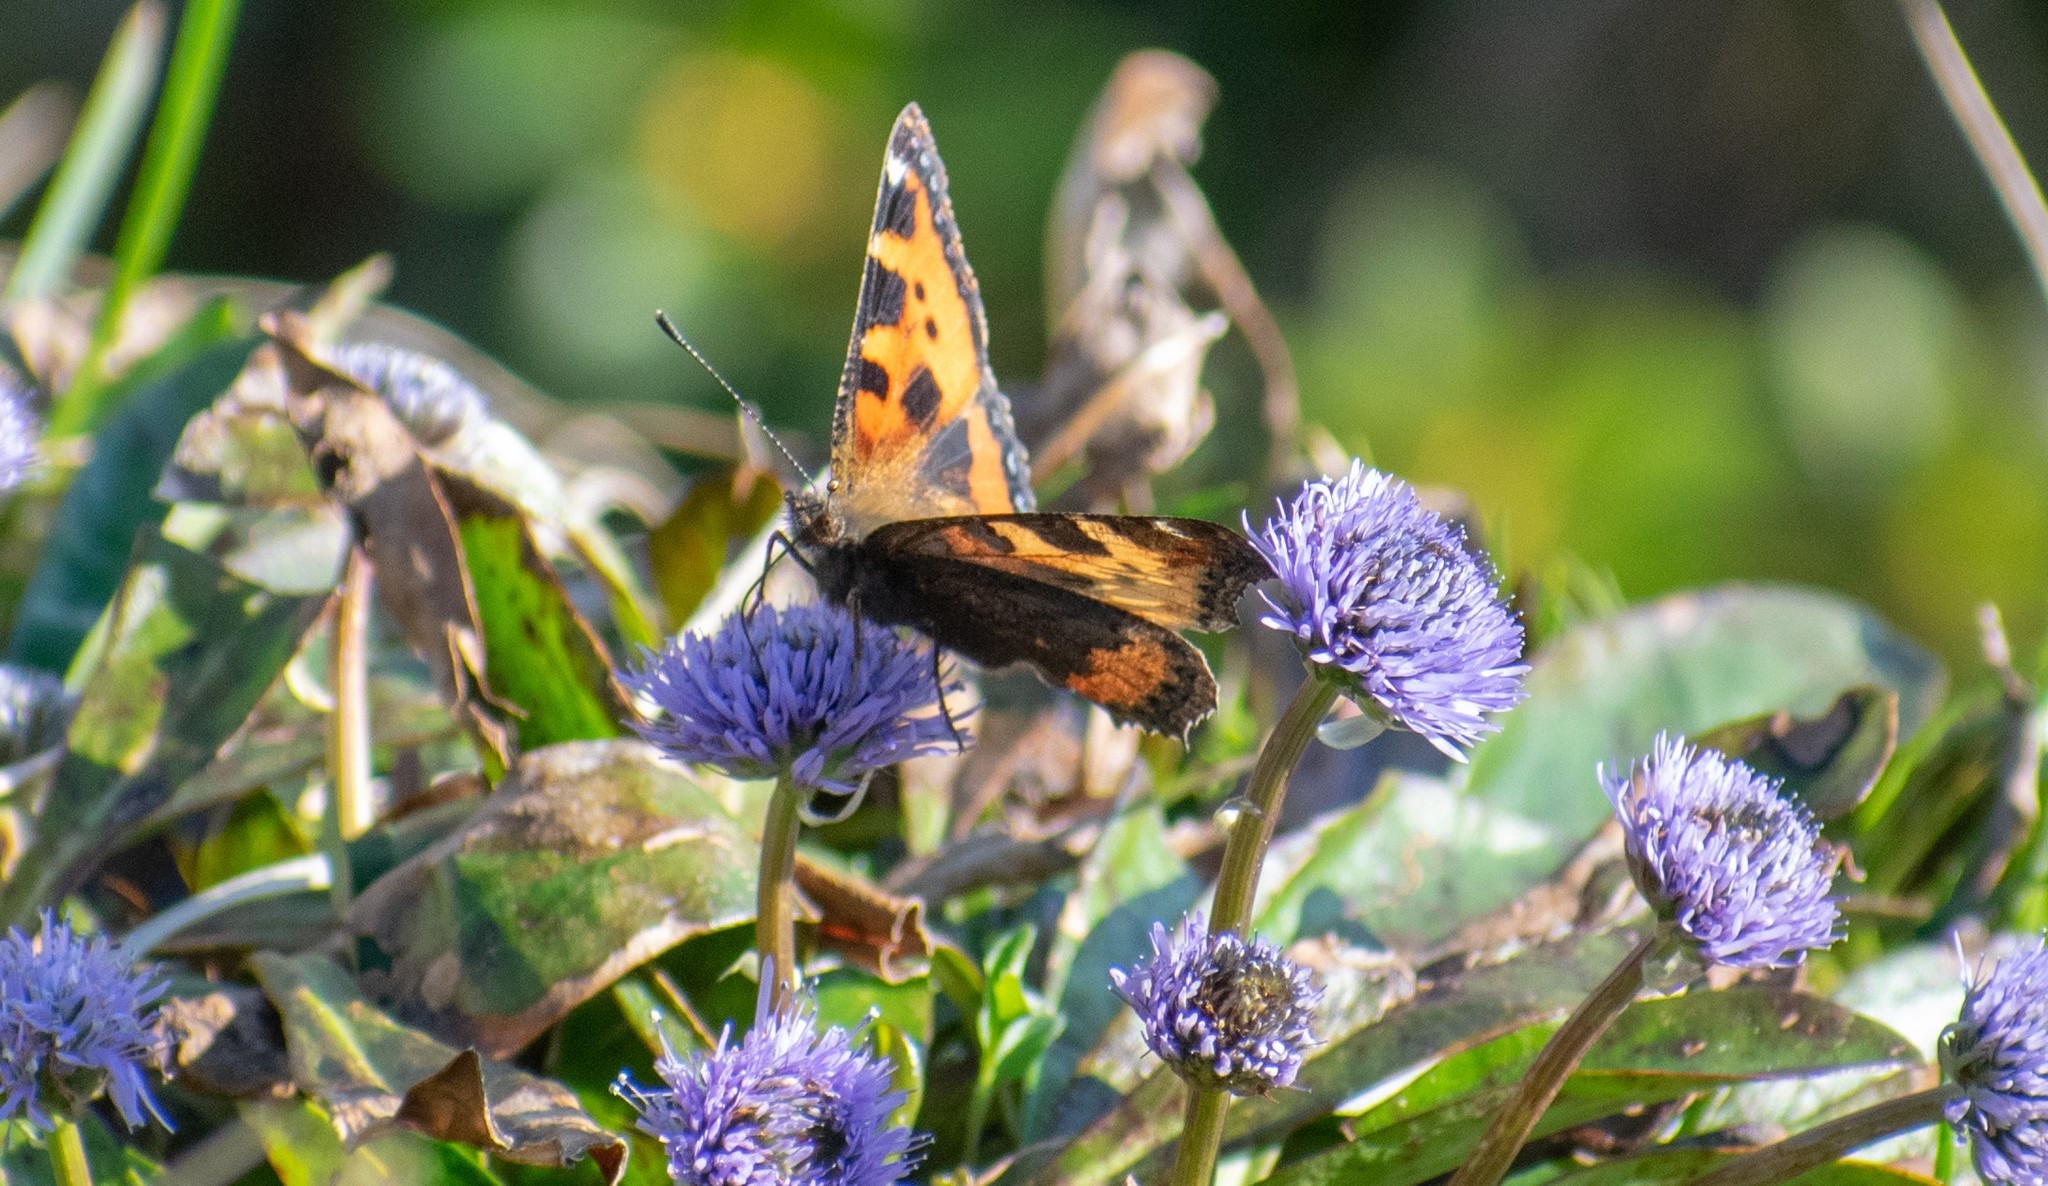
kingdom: Animalia
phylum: Arthropoda
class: Insecta
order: Lepidoptera
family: Nymphalidae
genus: Aglais
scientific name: Aglais urticae
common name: Small tortoiseshell
